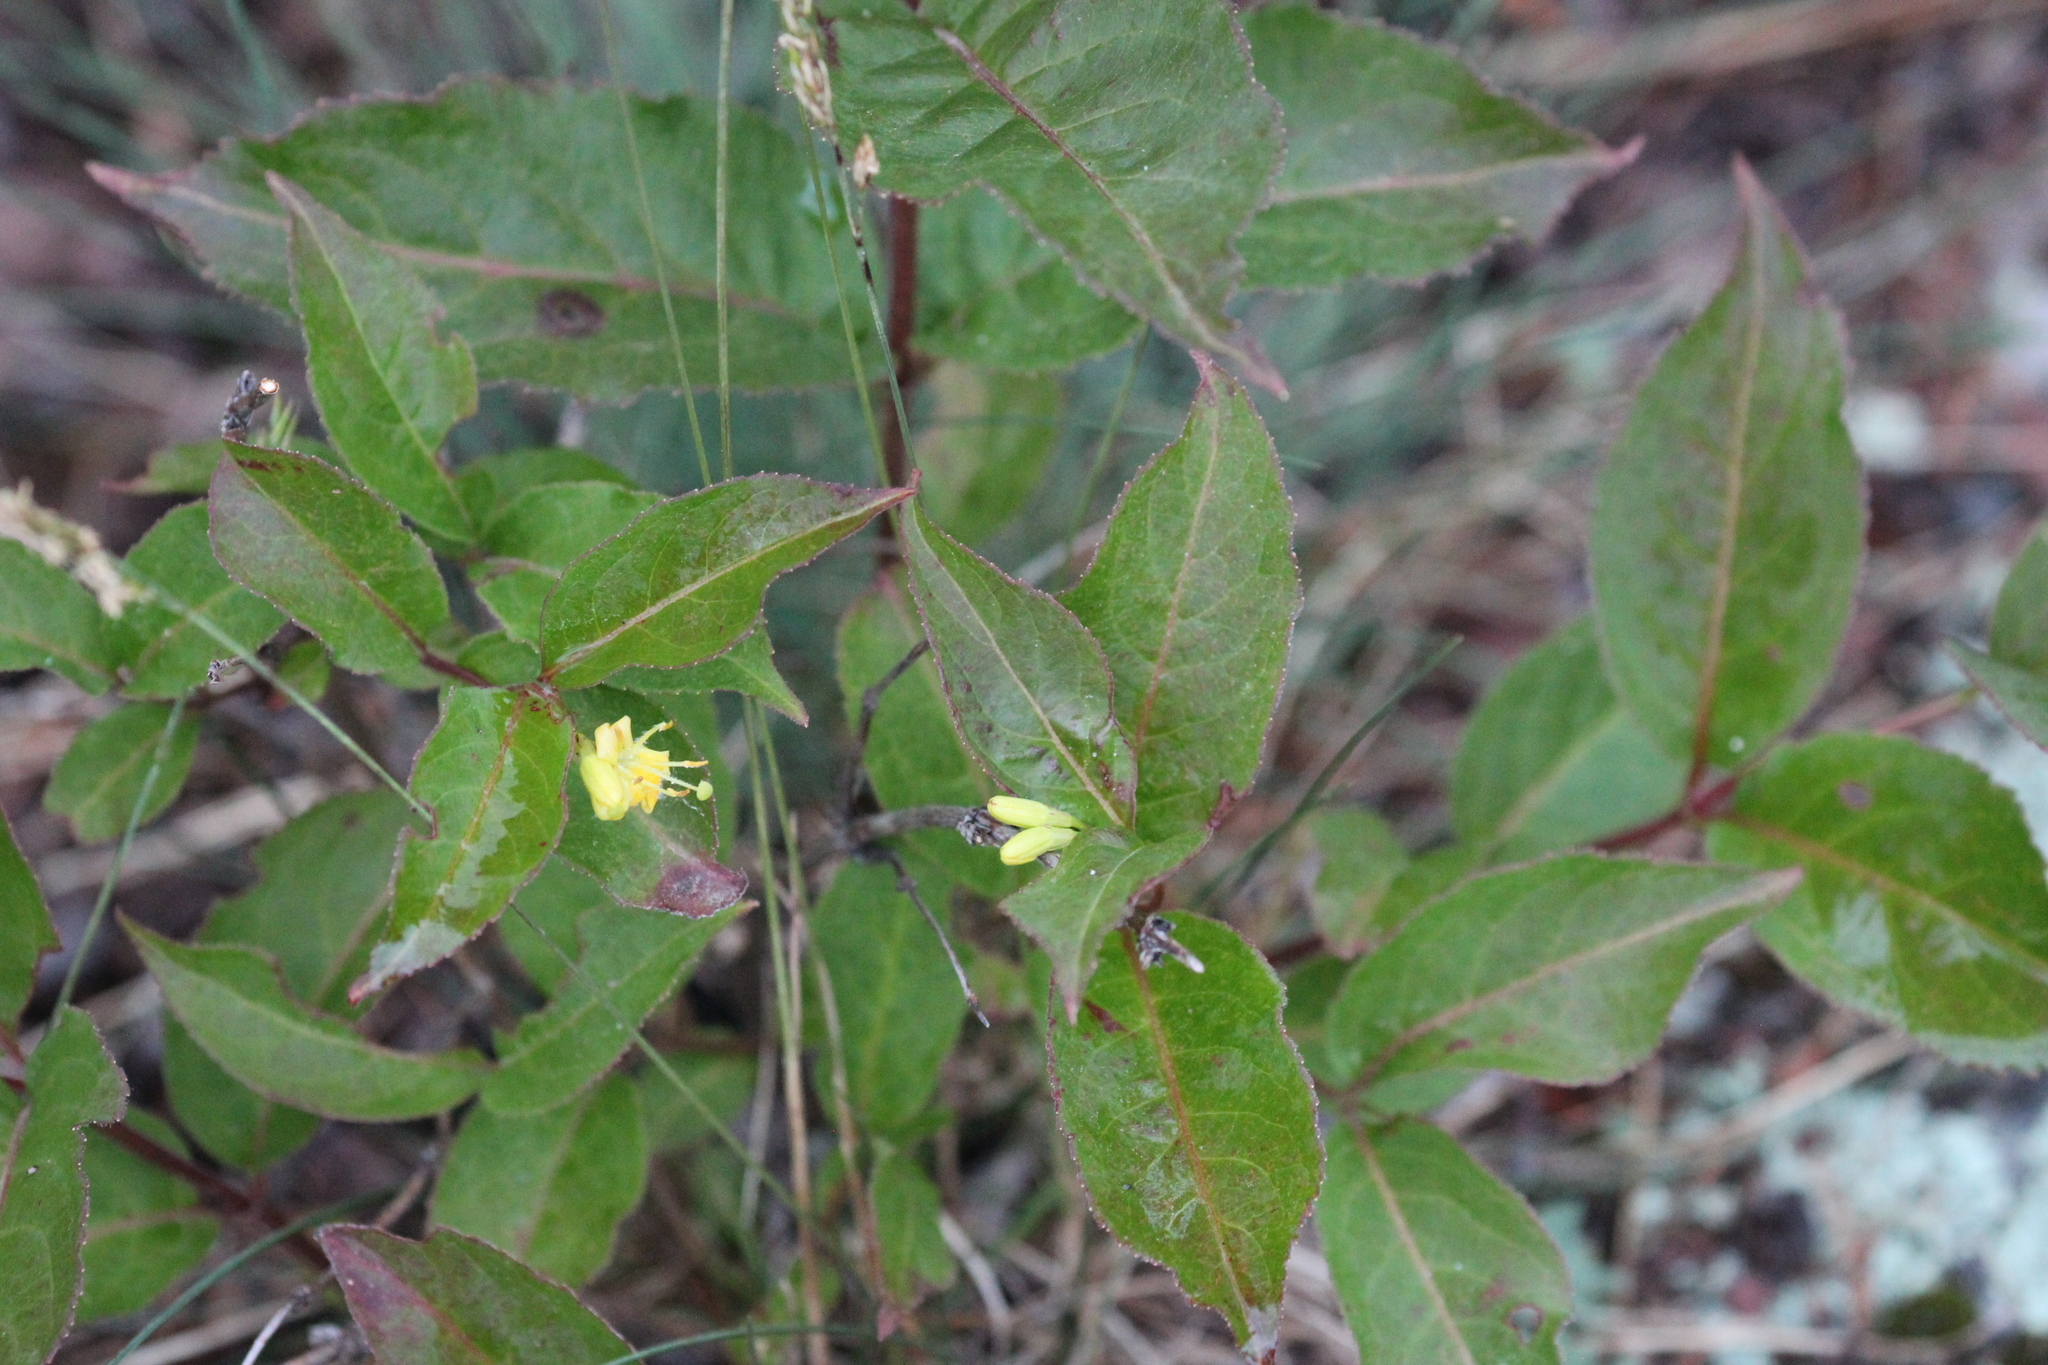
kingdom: Plantae
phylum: Tracheophyta
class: Magnoliopsida
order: Dipsacales
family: Caprifoliaceae
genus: Diervilla
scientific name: Diervilla lonicera
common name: Bush-honeysuckle
